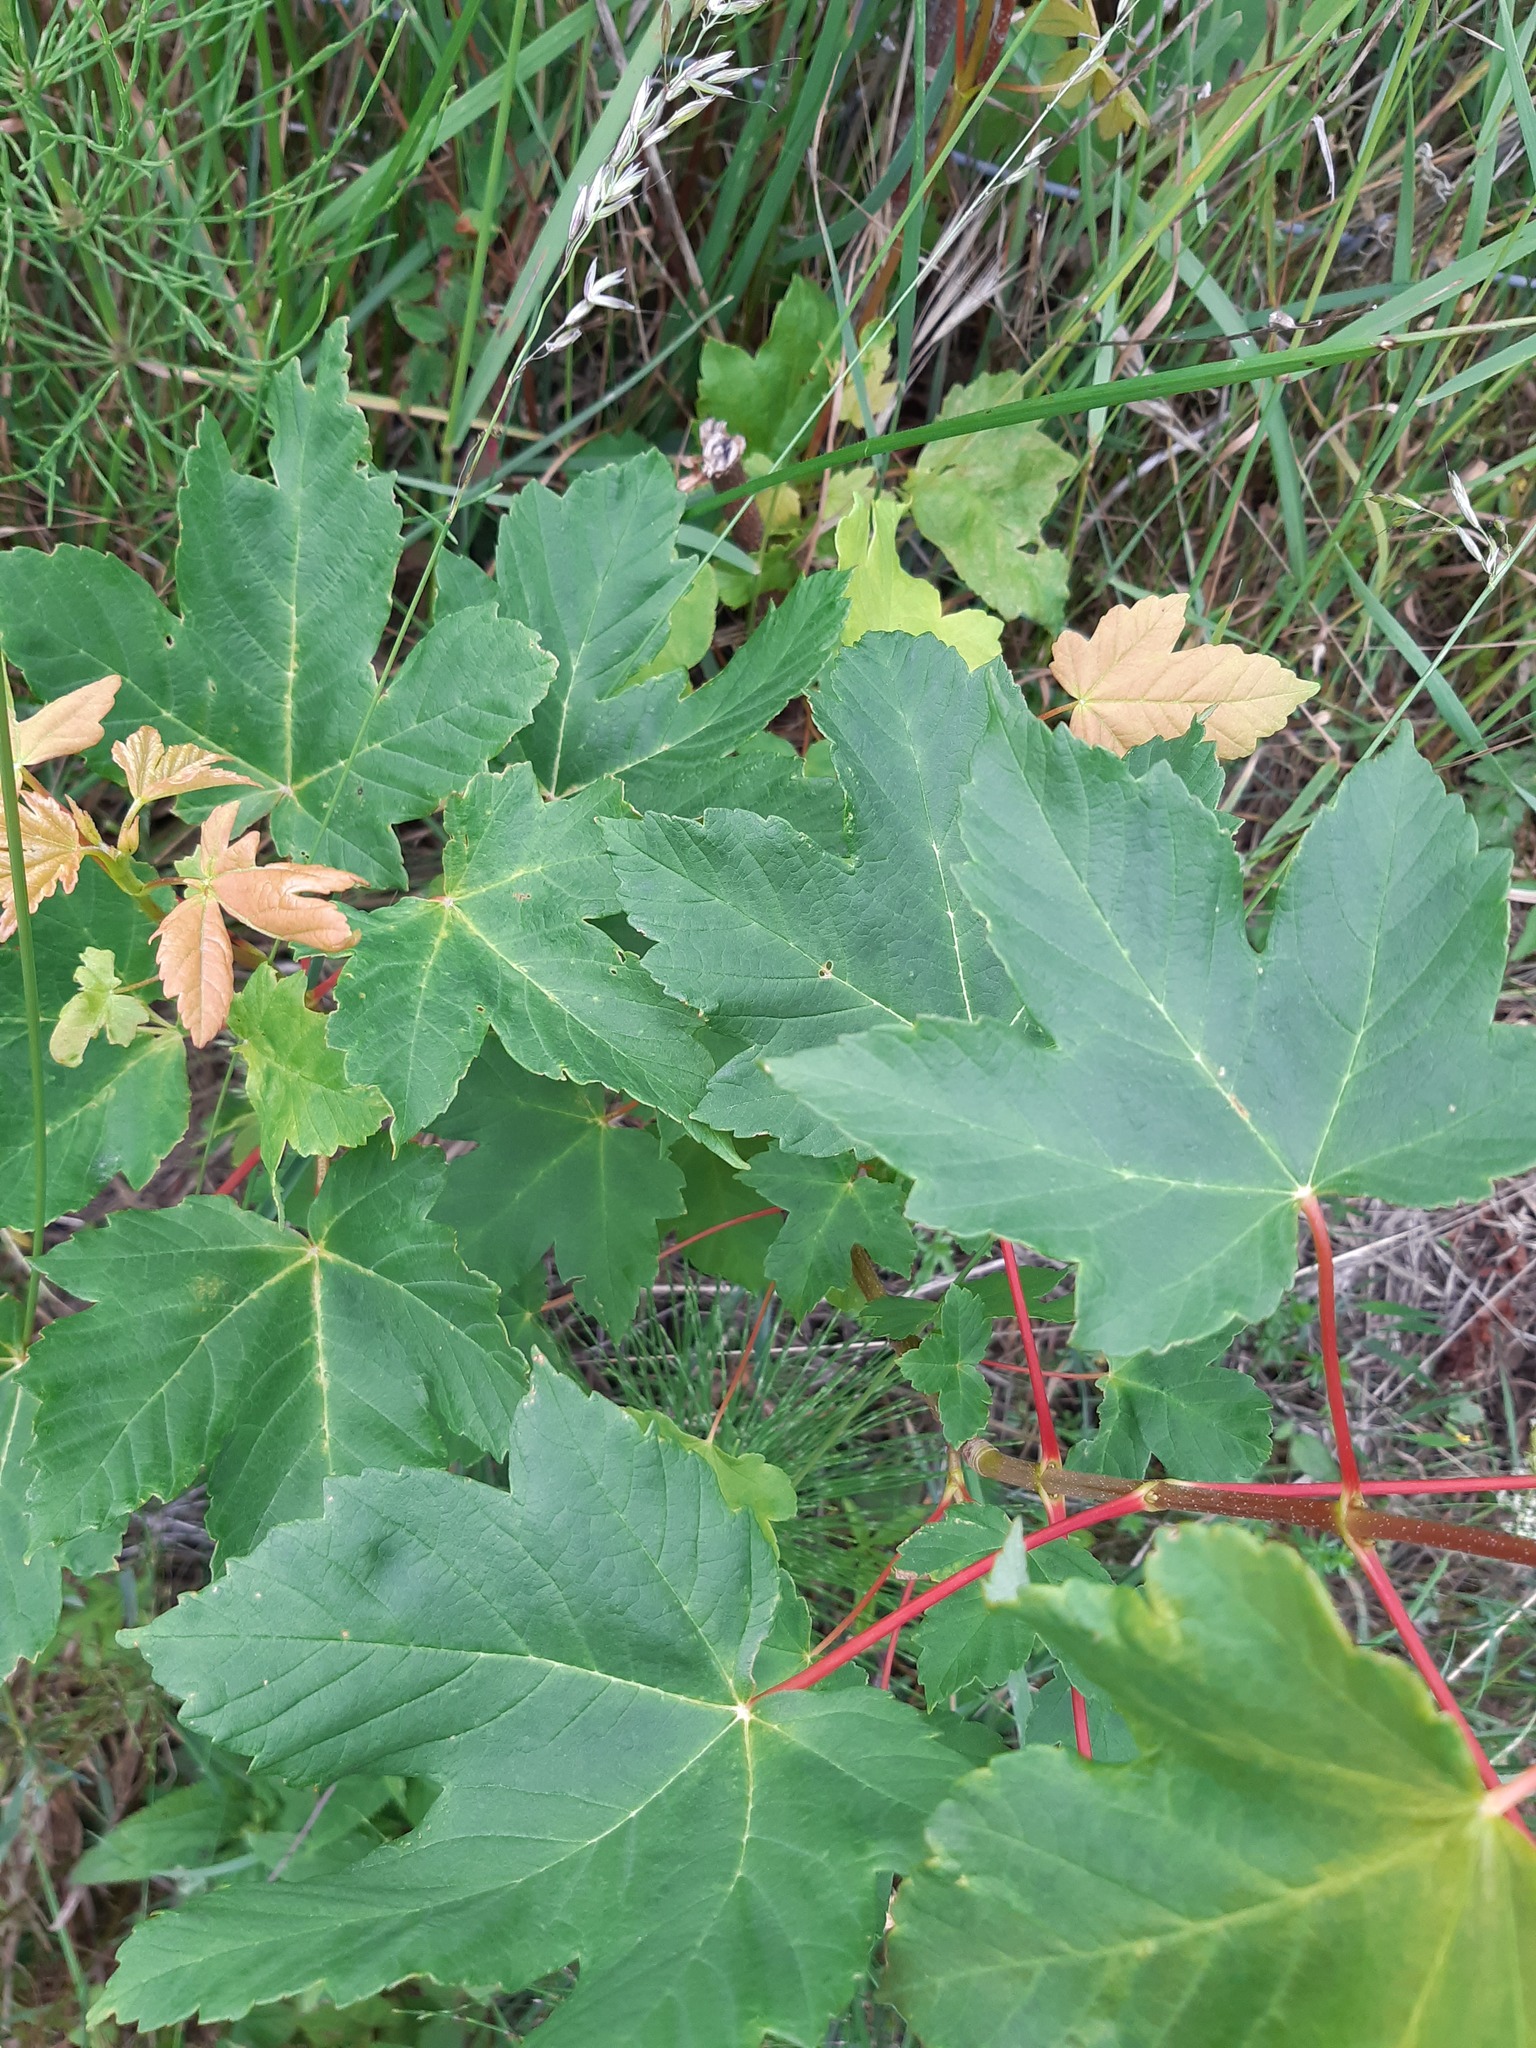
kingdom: Plantae
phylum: Tracheophyta
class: Magnoliopsida
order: Sapindales
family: Sapindaceae
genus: Acer
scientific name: Acer pseudoplatanus
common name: Sycamore
